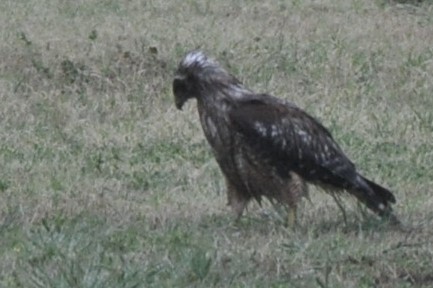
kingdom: Animalia
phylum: Chordata
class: Aves
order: Accipitriformes
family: Accipitridae
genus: Buteo
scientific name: Buteo lineatus
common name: Red-shouldered hawk
